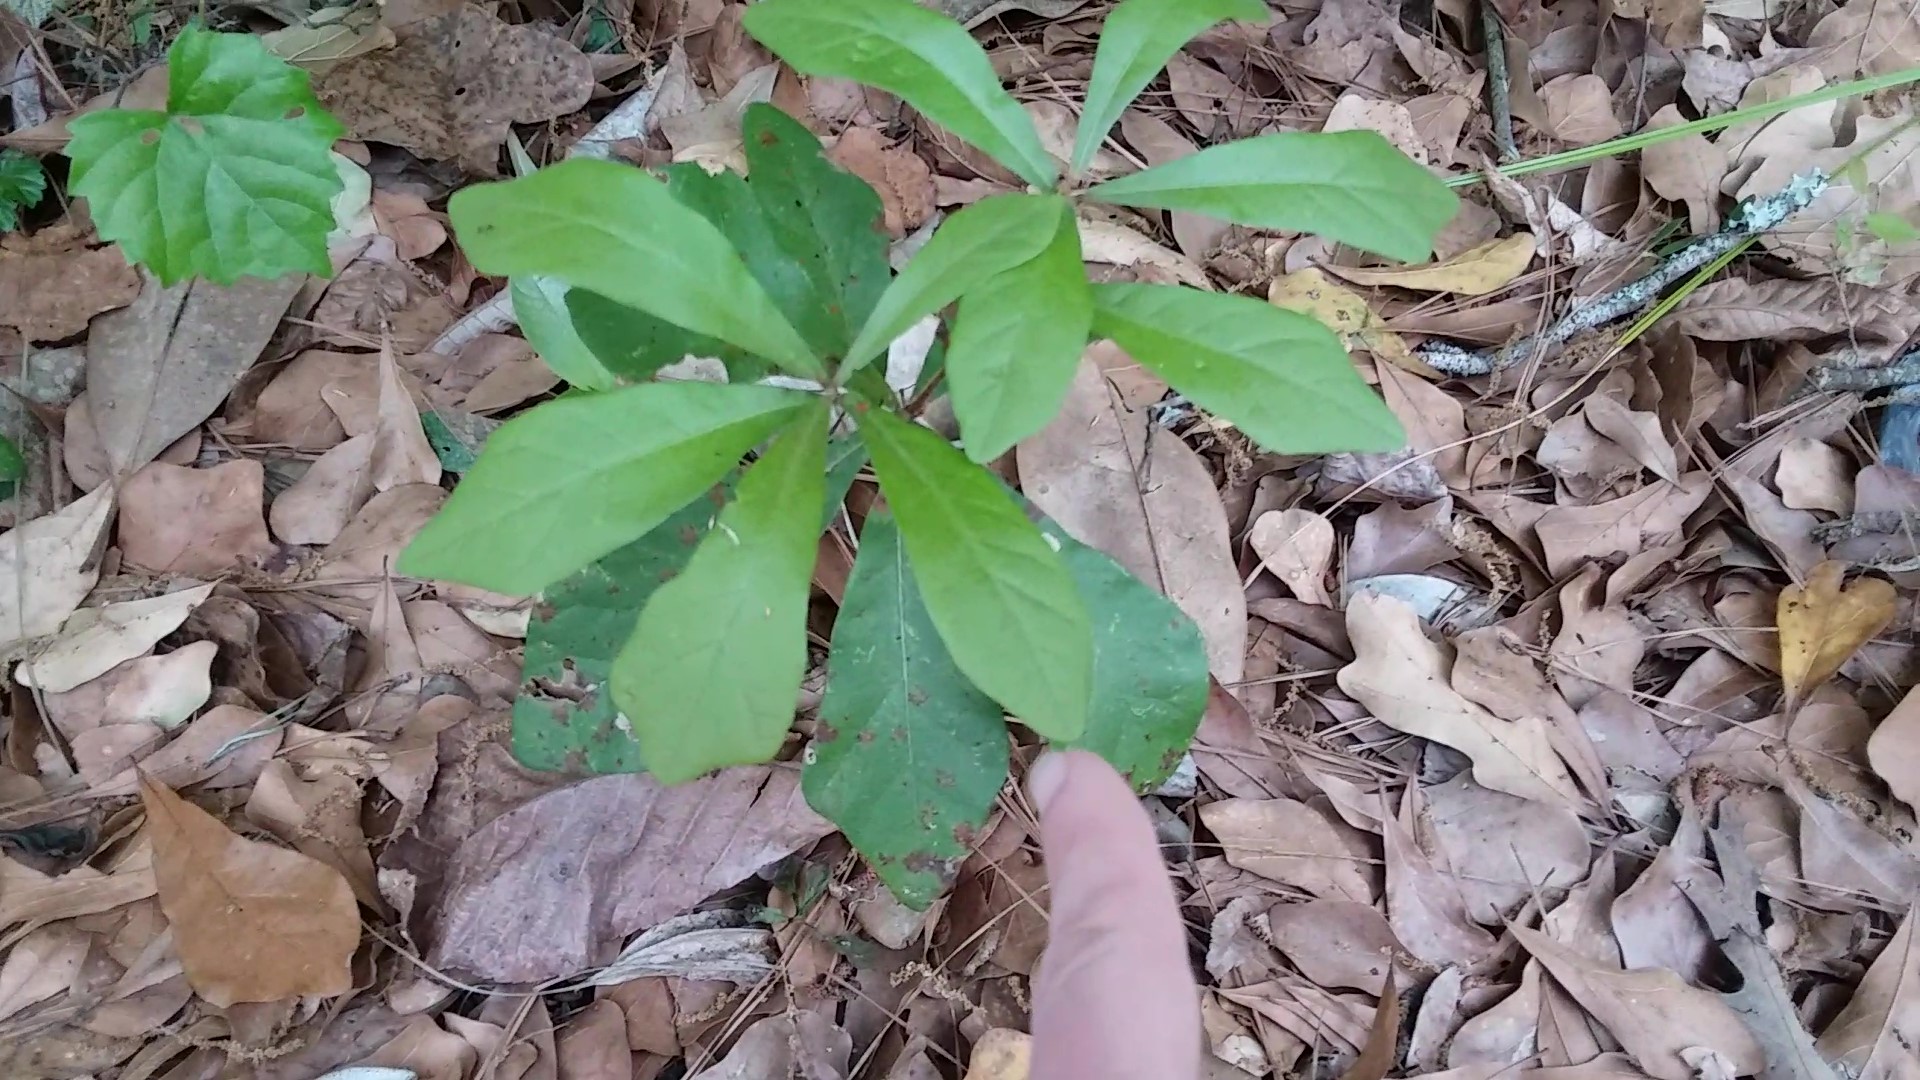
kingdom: Plantae
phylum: Tracheophyta
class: Magnoliopsida
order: Fagales
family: Fagaceae
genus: Quercus
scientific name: Quercus nigra
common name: Water oak
